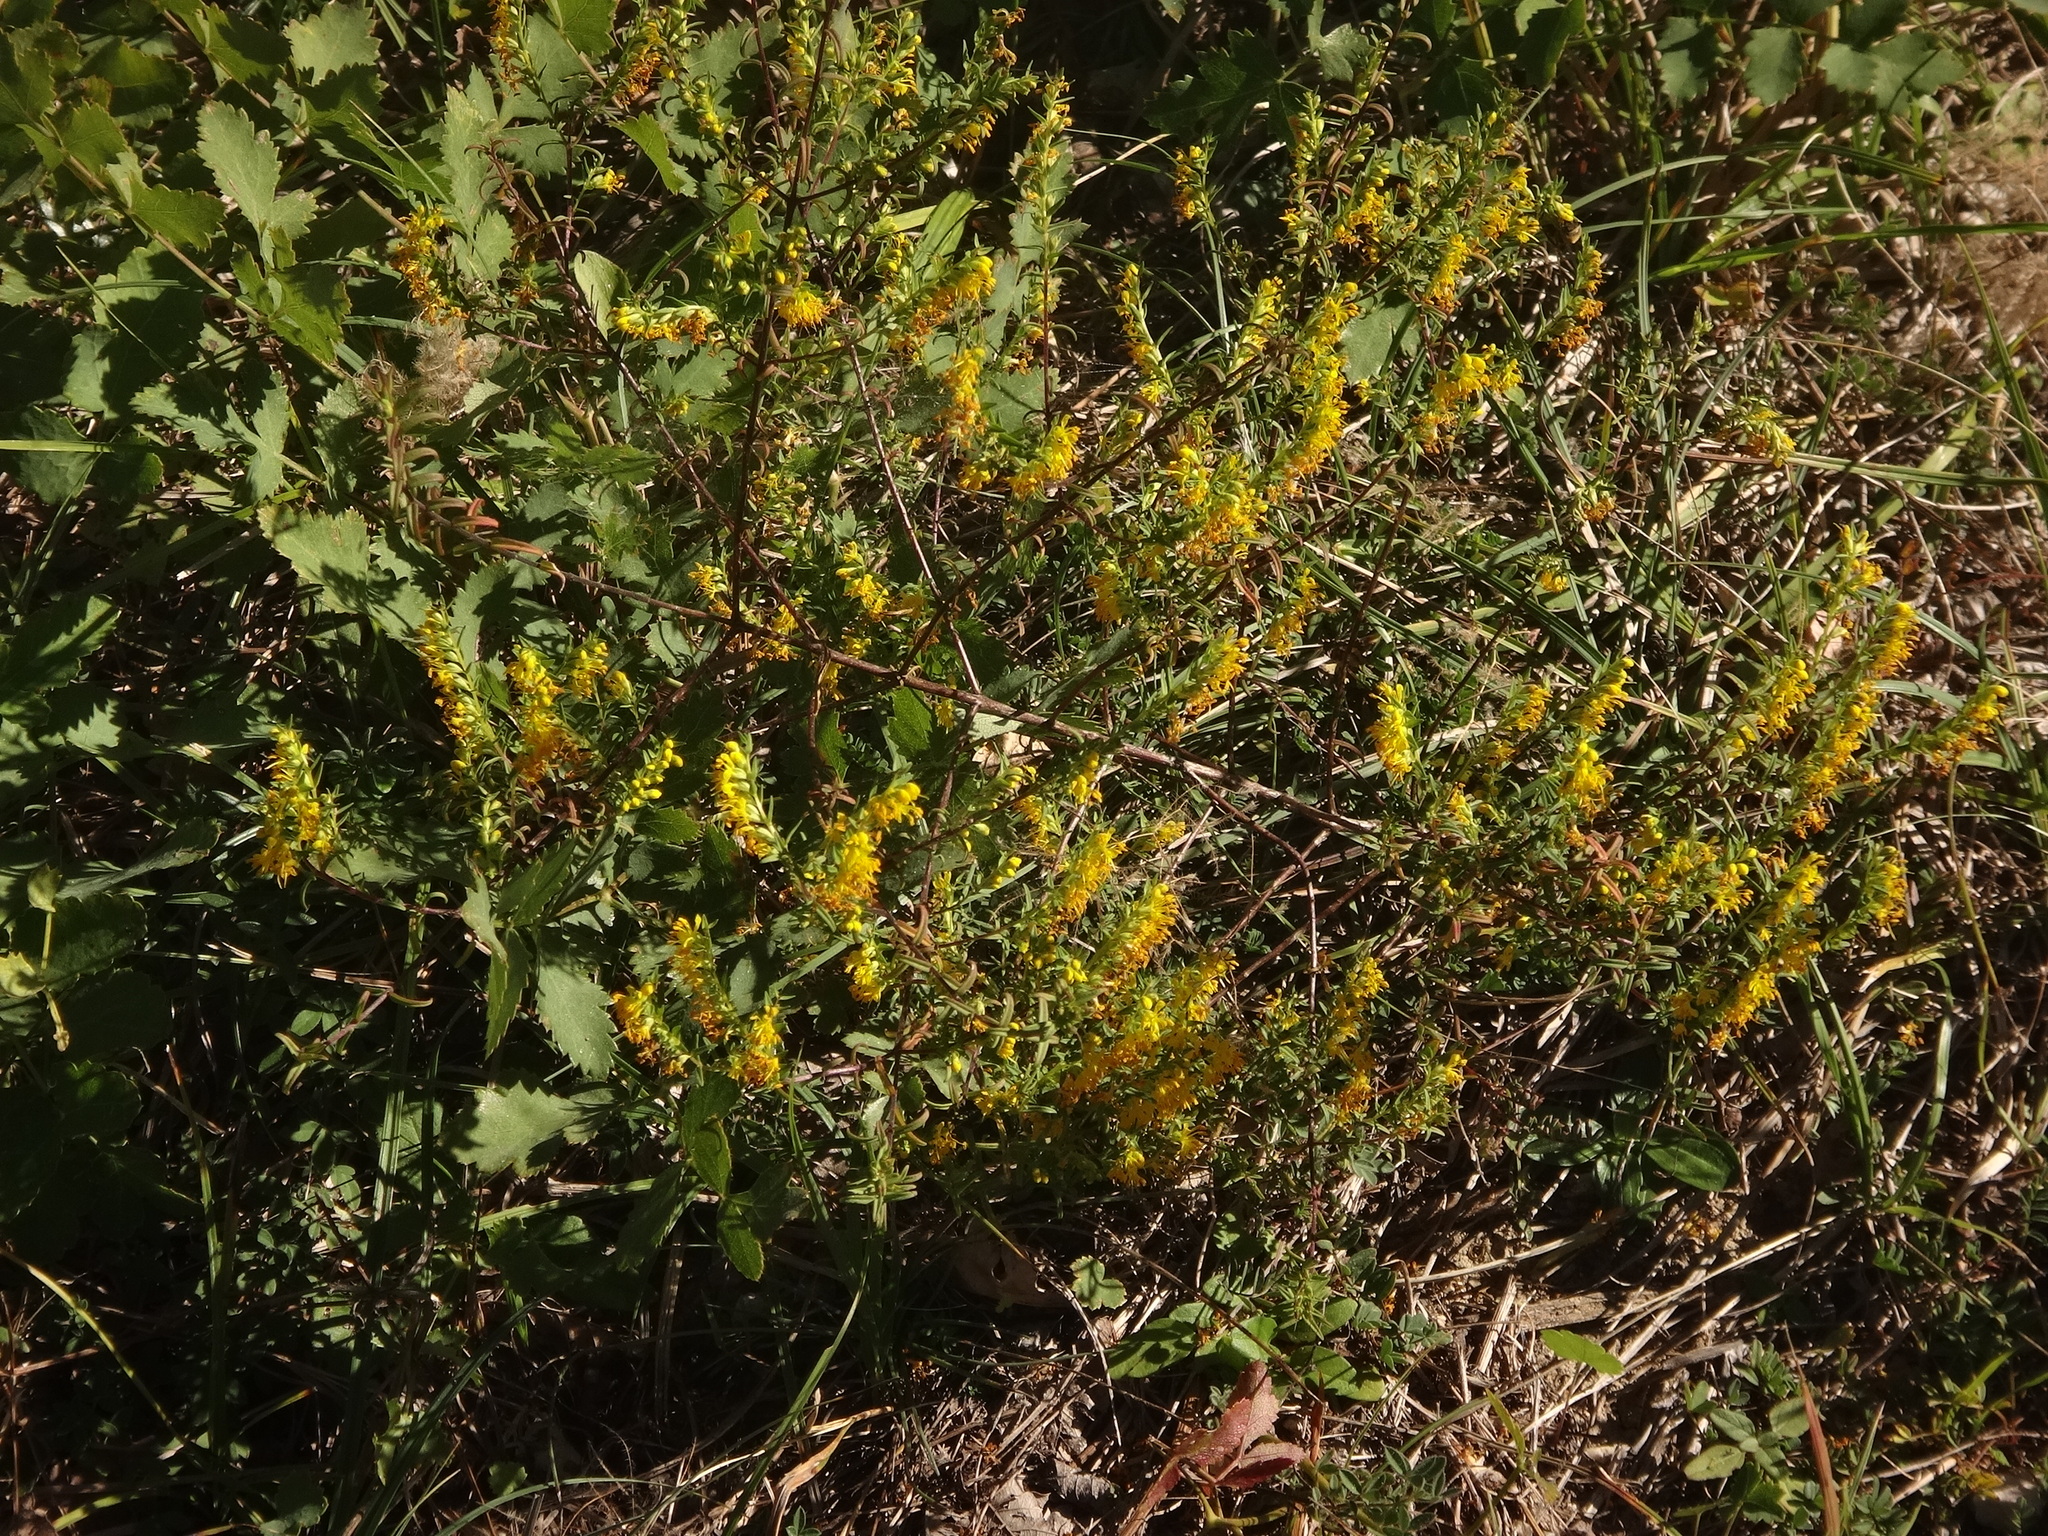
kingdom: Plantae
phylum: Tracheophyta
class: Magnoliopsida
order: Lamiales
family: Orobanchaceae
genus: Odontites
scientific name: Odontites luteus
